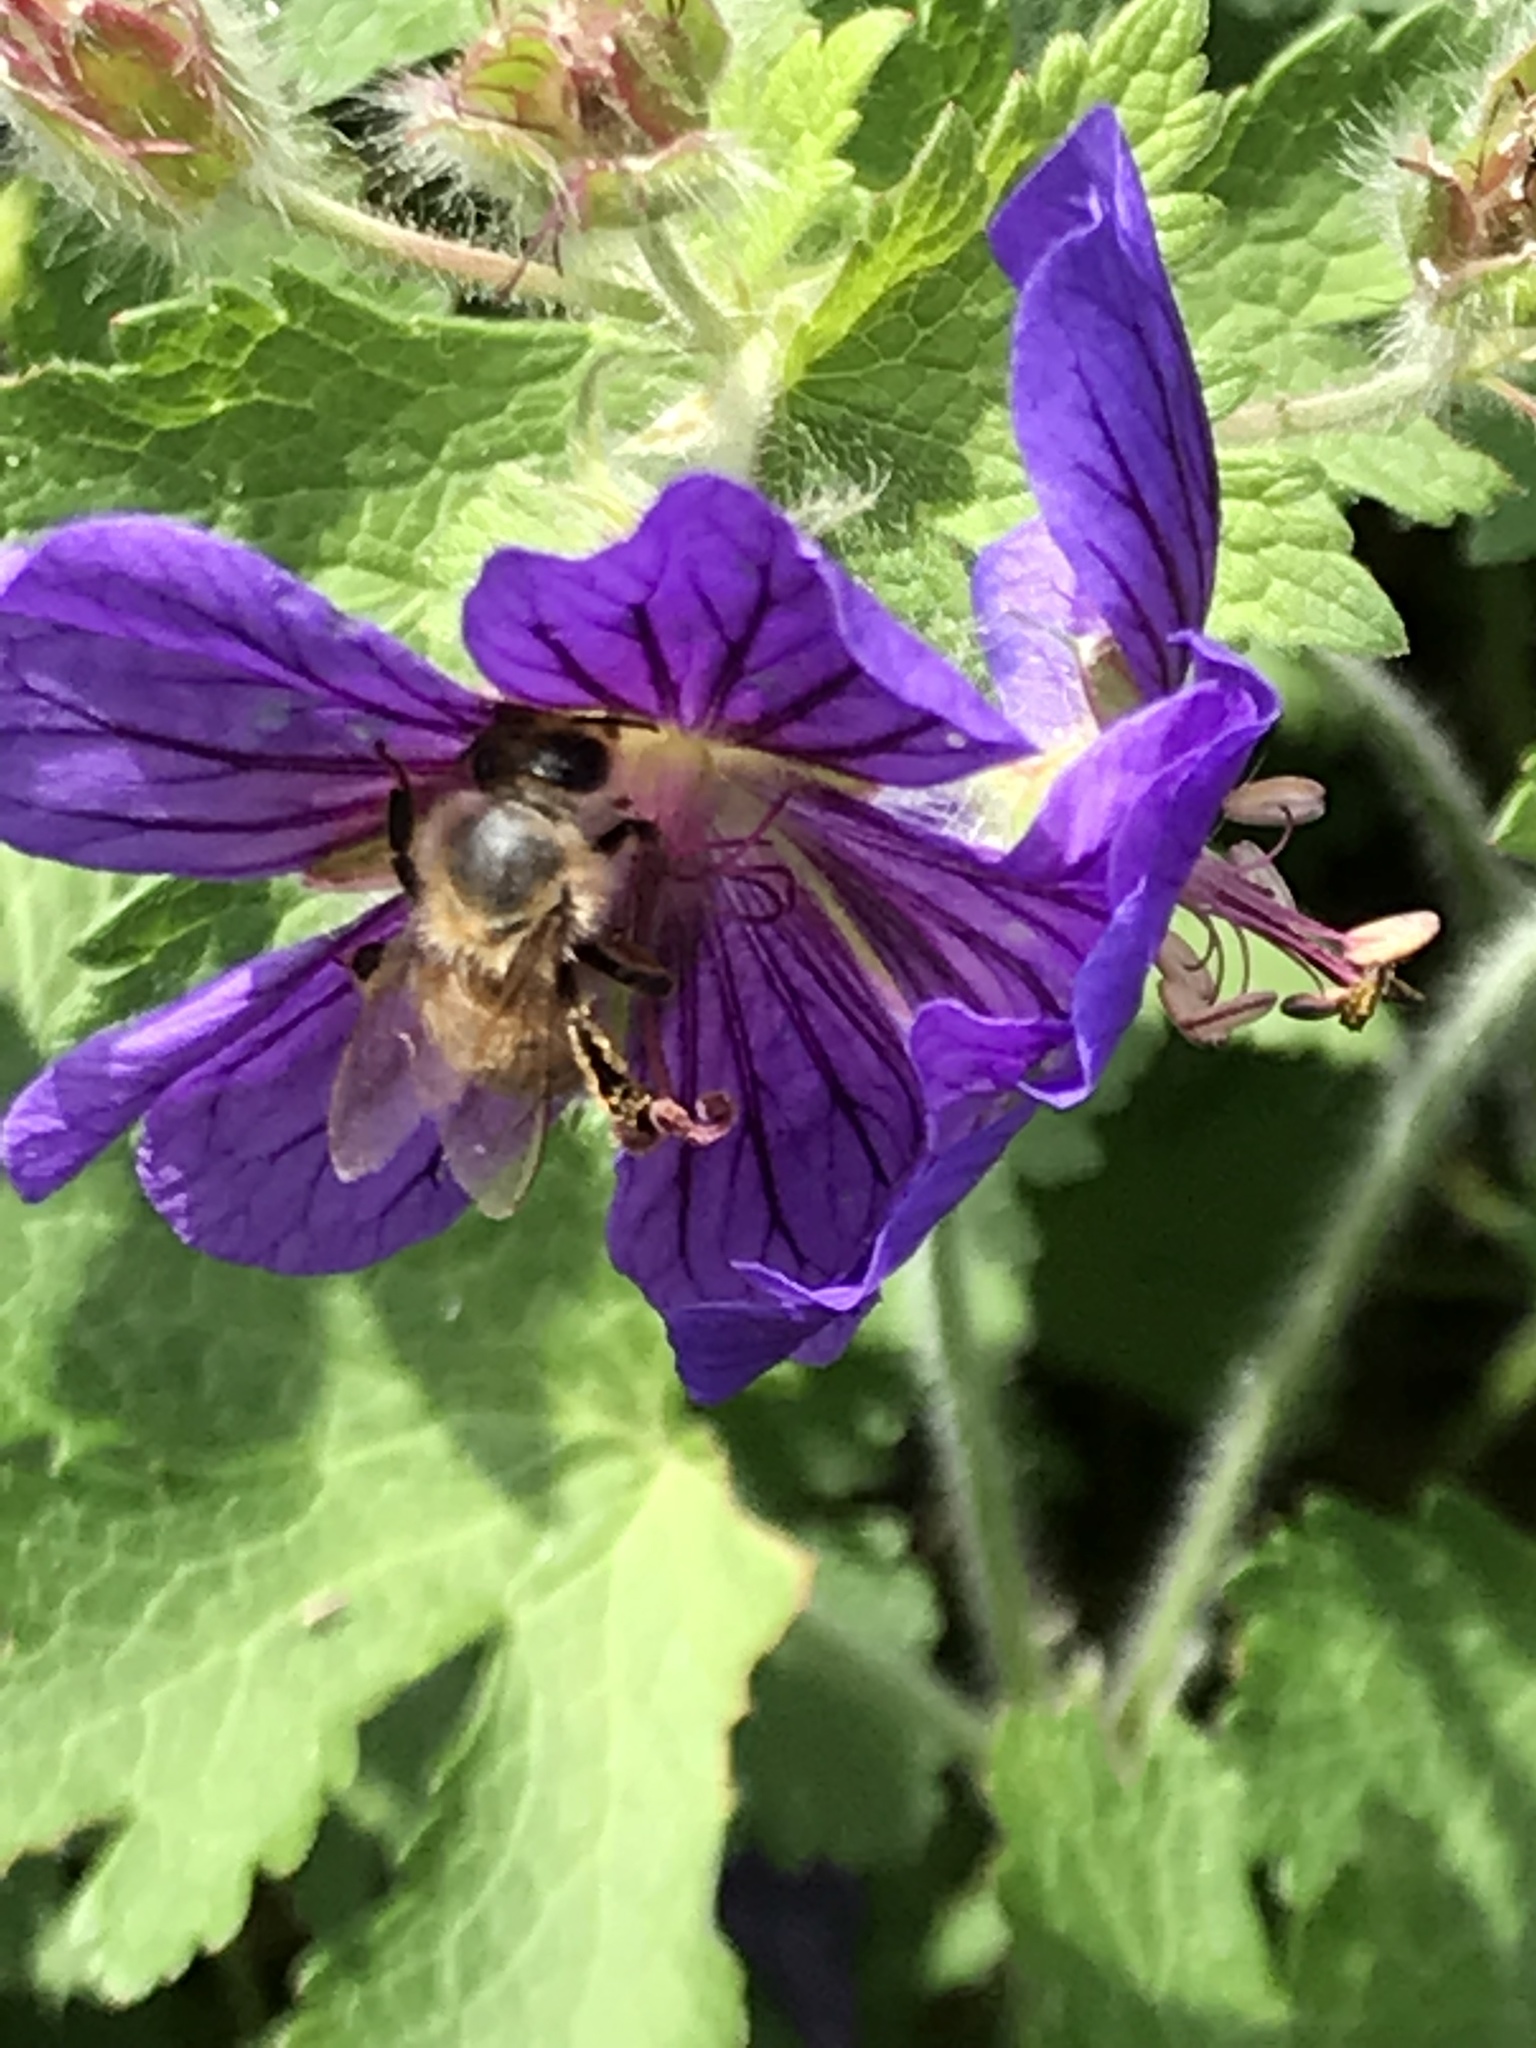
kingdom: Animalia
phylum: Arthropoda
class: Insecta
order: Hymenoptera
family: Apidae
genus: Apis
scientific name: Apis mellifera
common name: Honey bee
